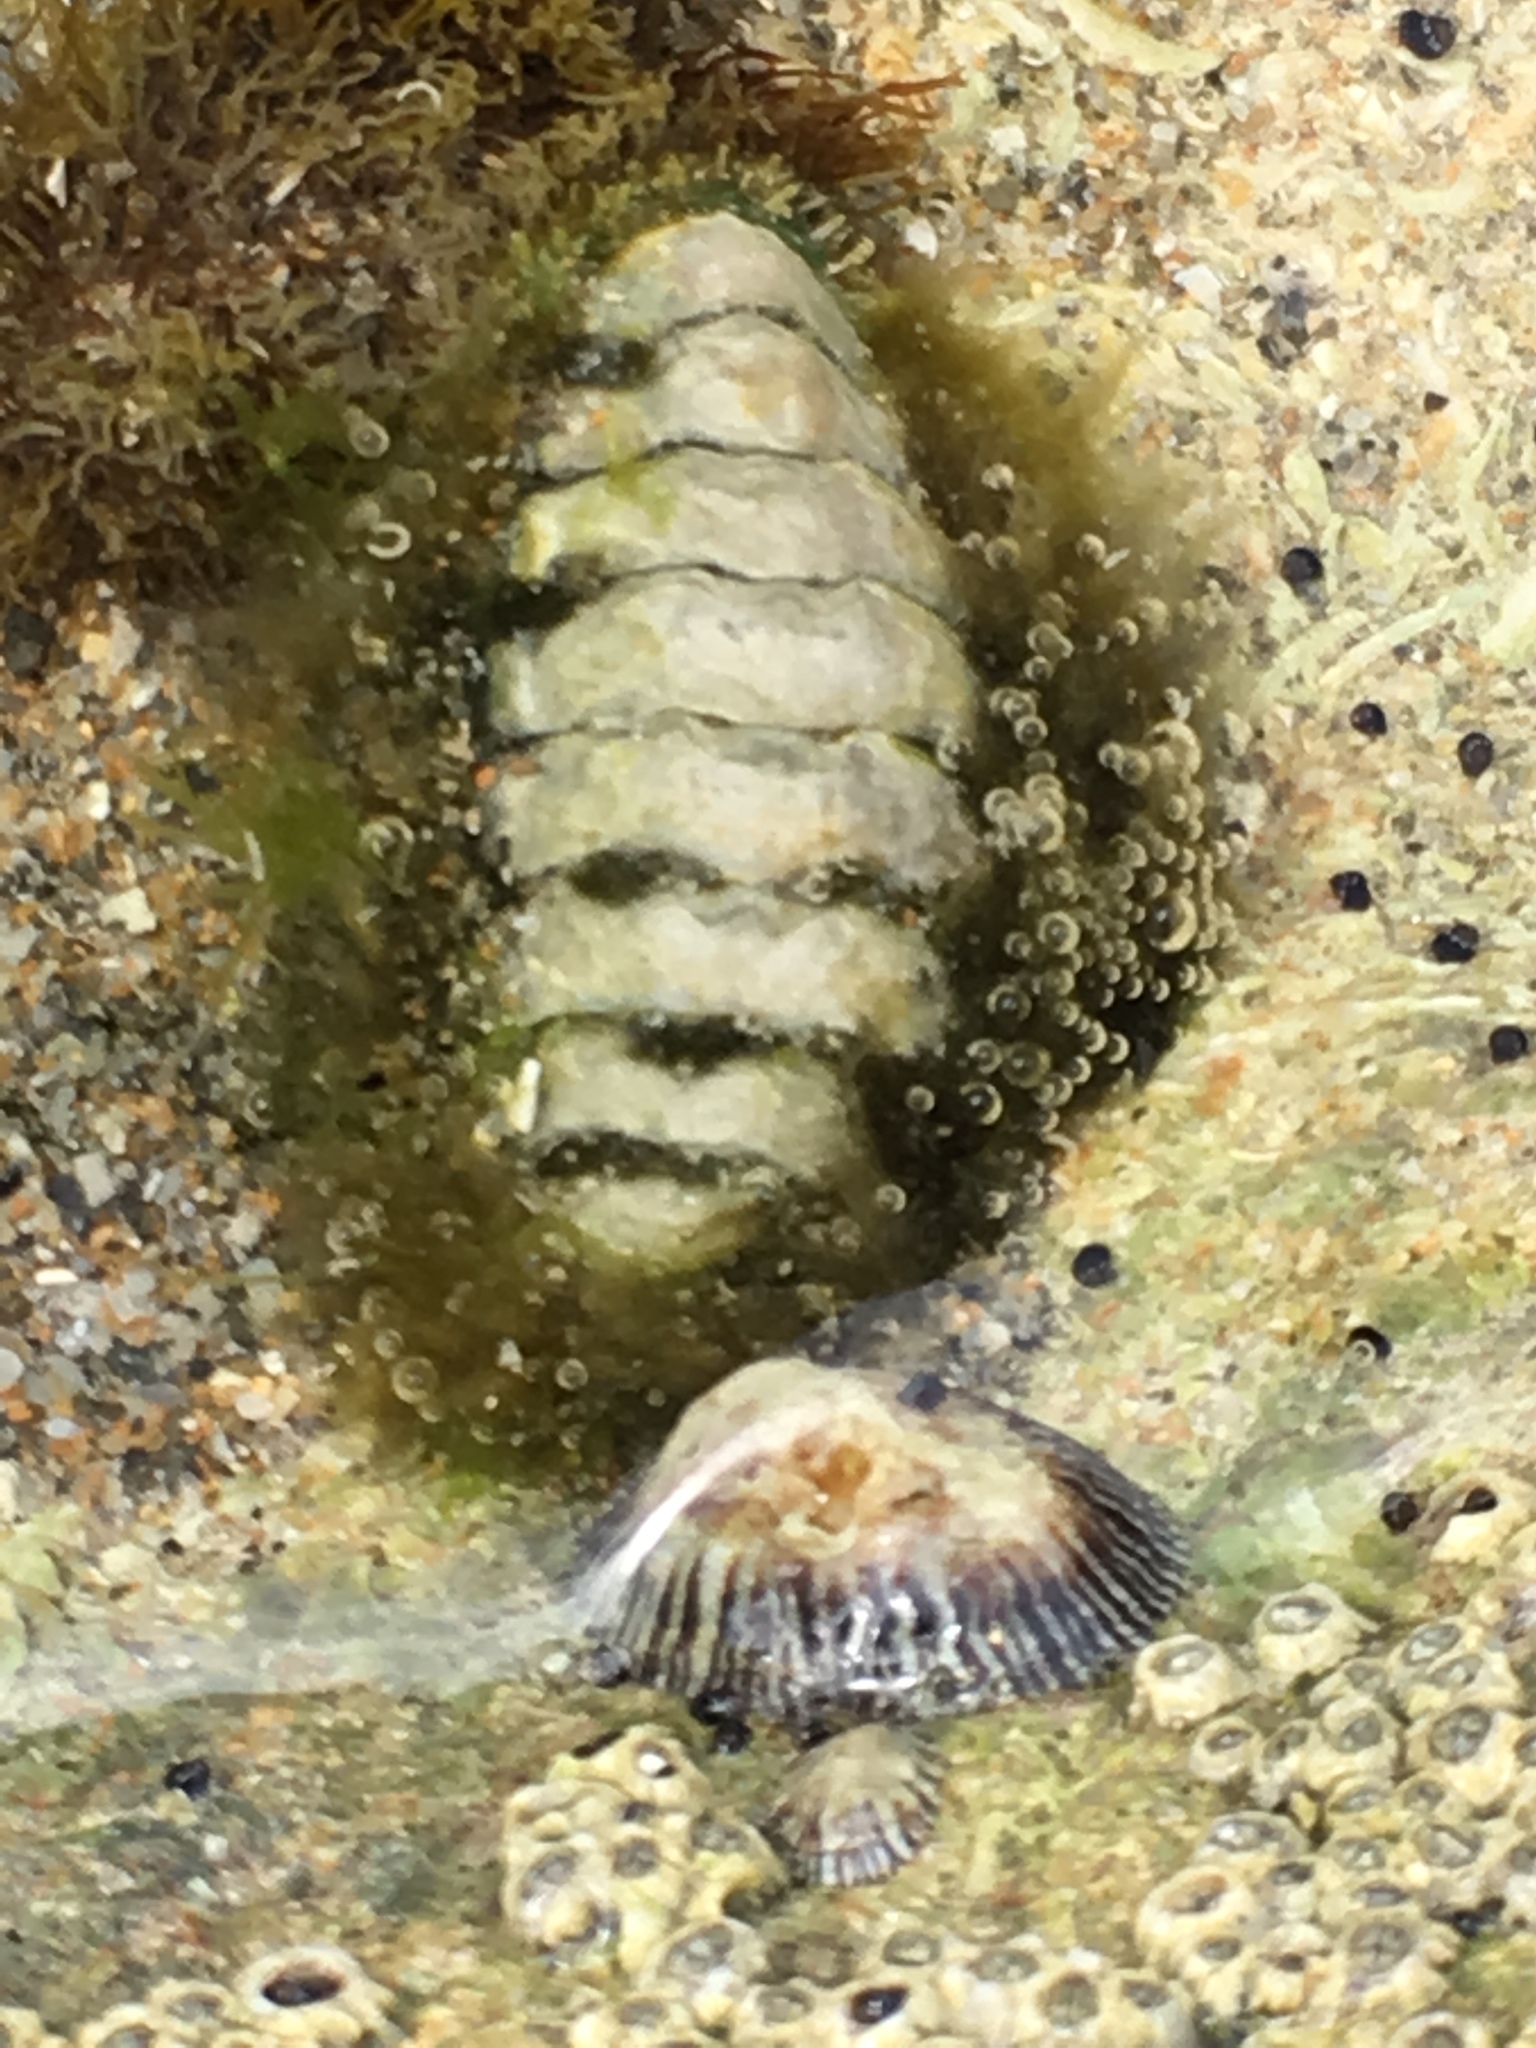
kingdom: Animalia
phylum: Mollusca
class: Polyplacophora
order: Chitonida
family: Tonicellidae
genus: Ceratozona
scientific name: Ceratozona squalida
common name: Rough-girdled chiton
